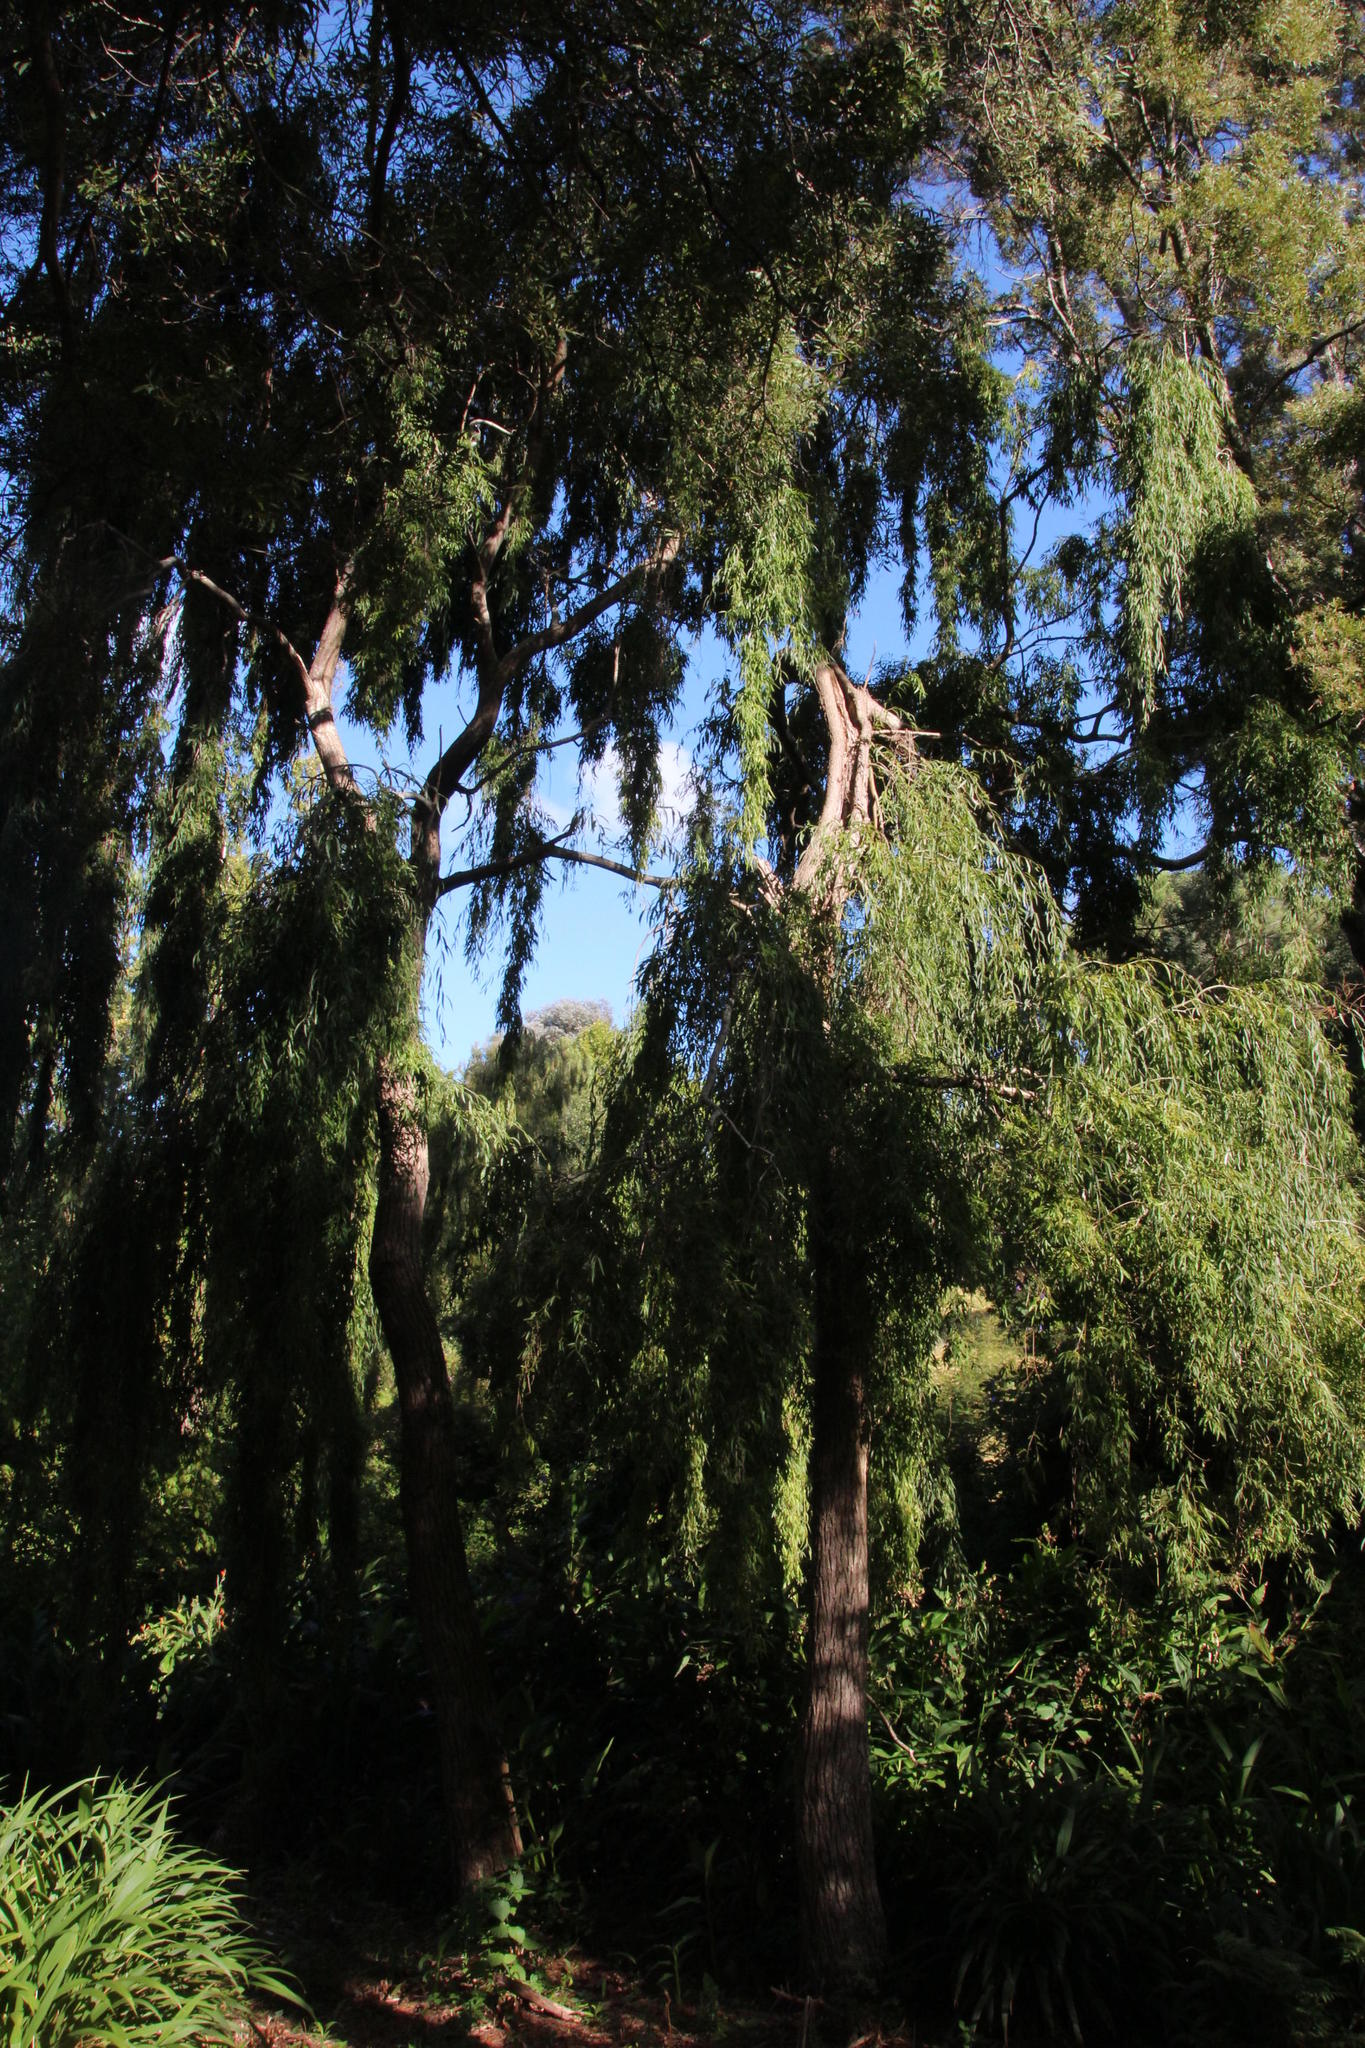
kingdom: Plantae
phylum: Tracheophyta
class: Magnoliopsida
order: Malpighiales
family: Salicaceae
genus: Salix
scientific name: Salix babylonica
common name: Weeping willow
